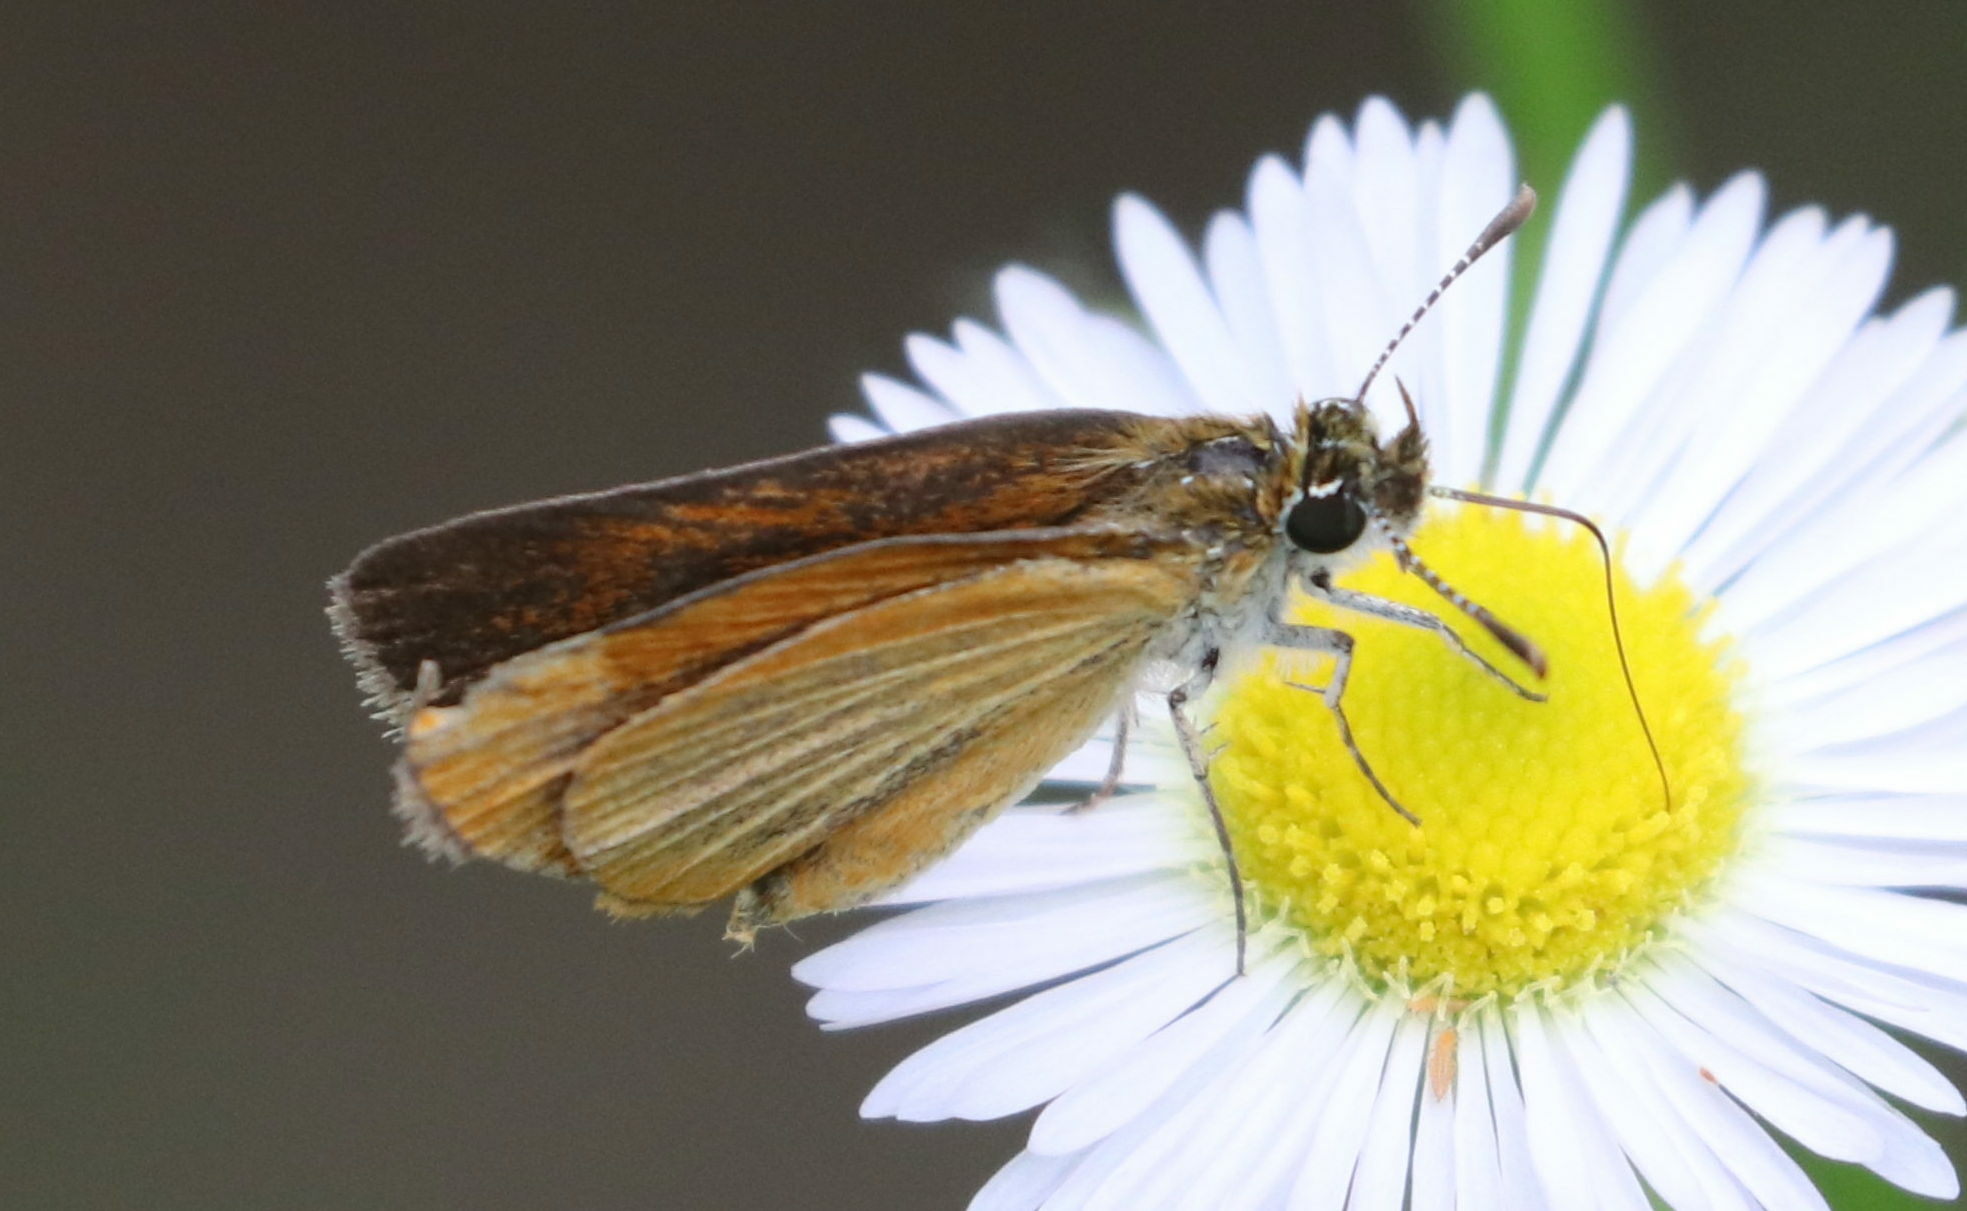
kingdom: Animalia
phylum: Arthropoda
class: Insecta
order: Lepidoptera
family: Hesperiidae
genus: Ancyloxypha
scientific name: Ancyloxypha numitor
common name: Least skipper
